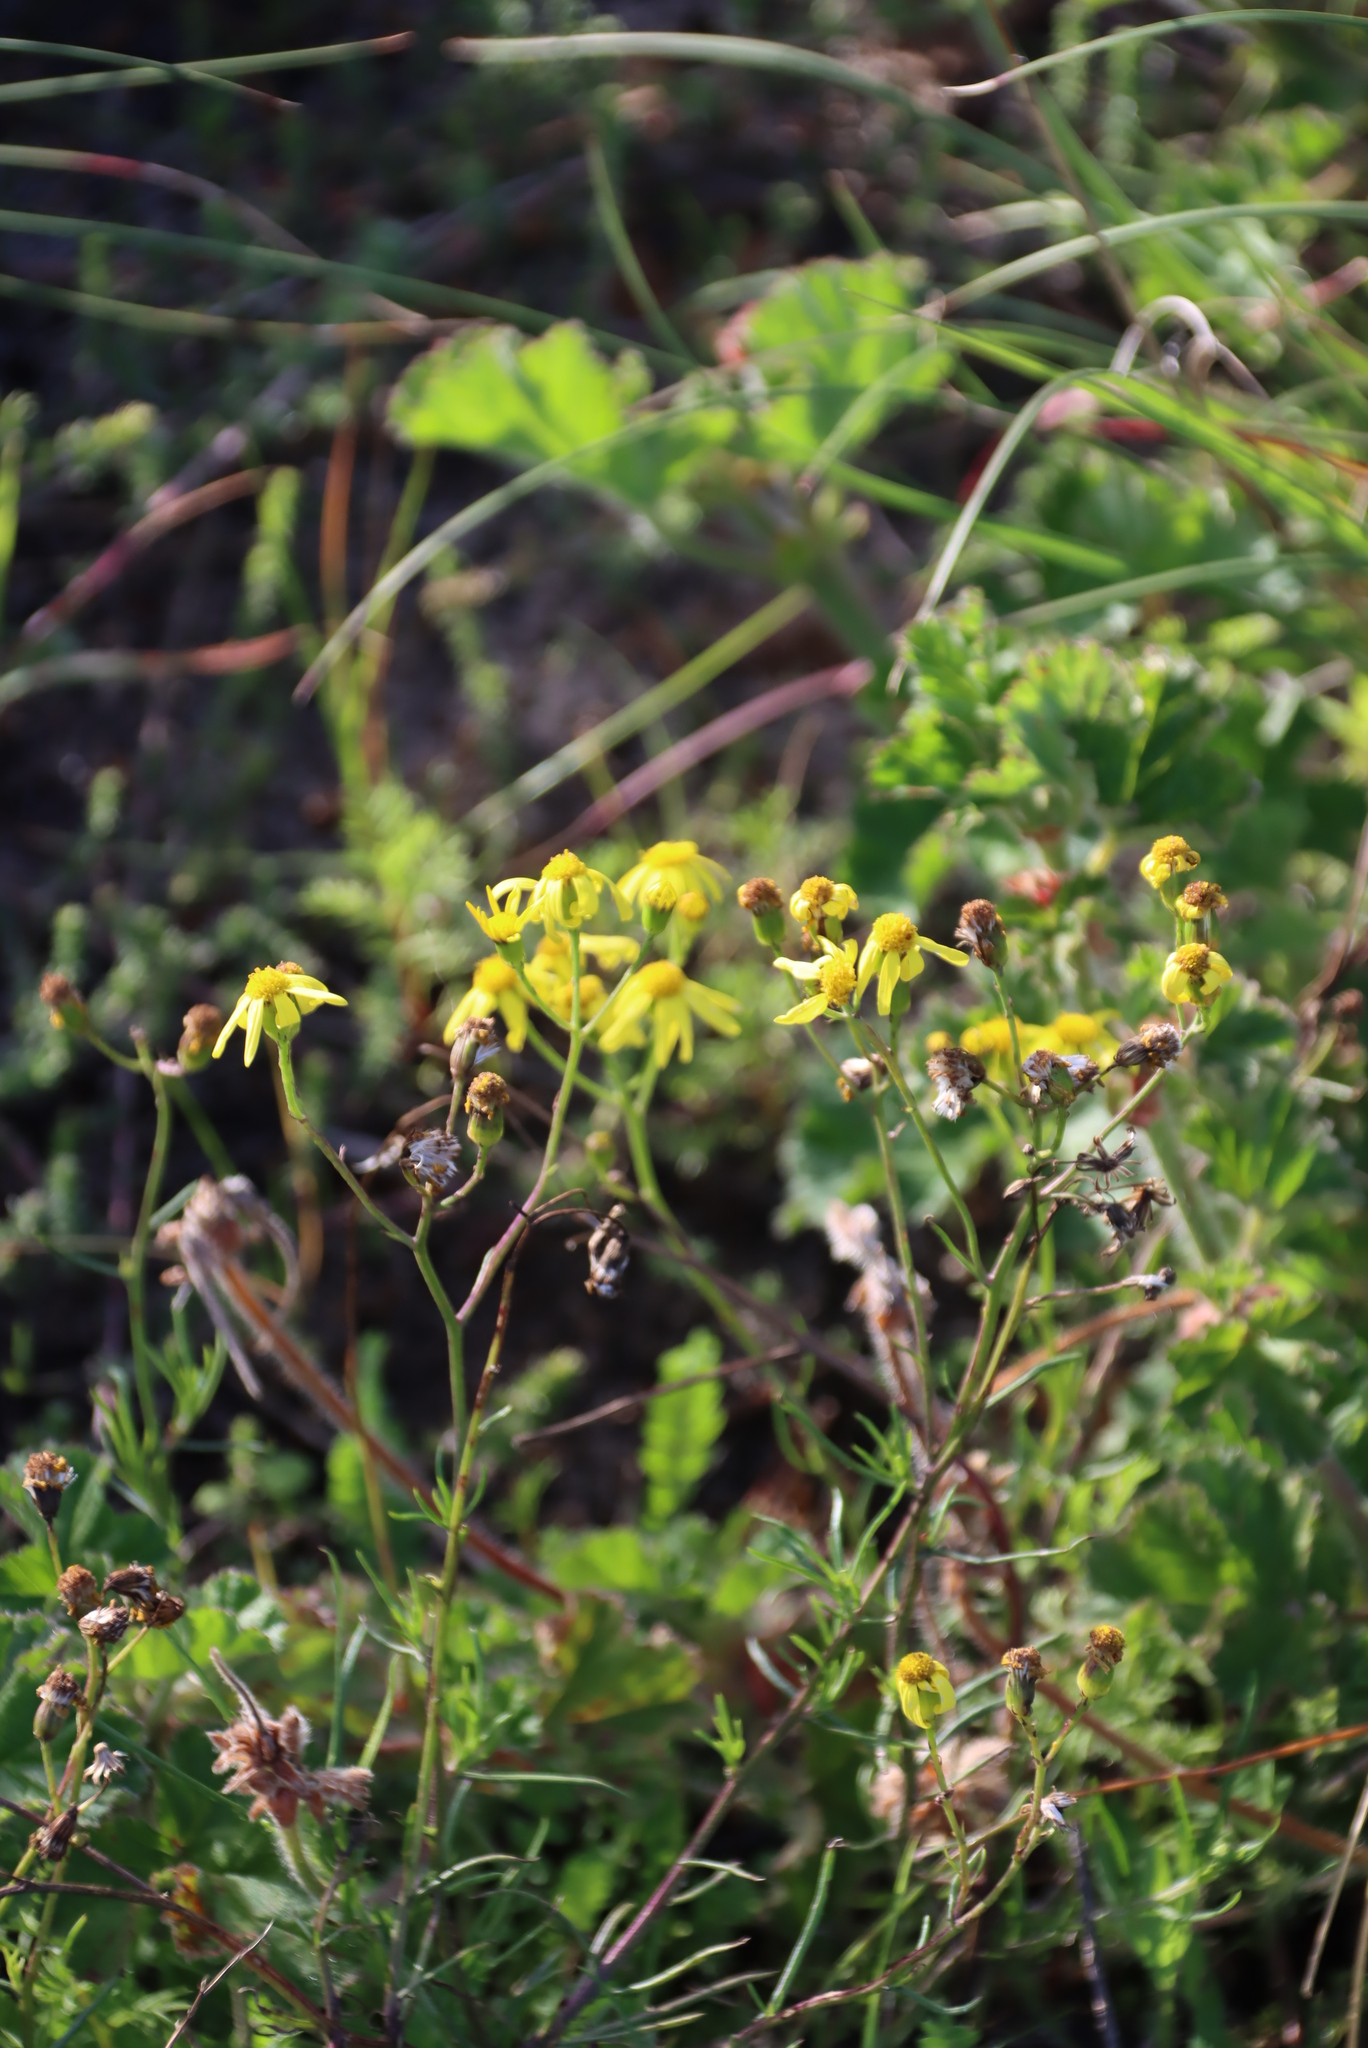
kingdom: Plantae
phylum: Tracheophyta
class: Magnoliopsida
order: Asterales
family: Asteraceae
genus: Senecio
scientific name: Senecio burchellii
